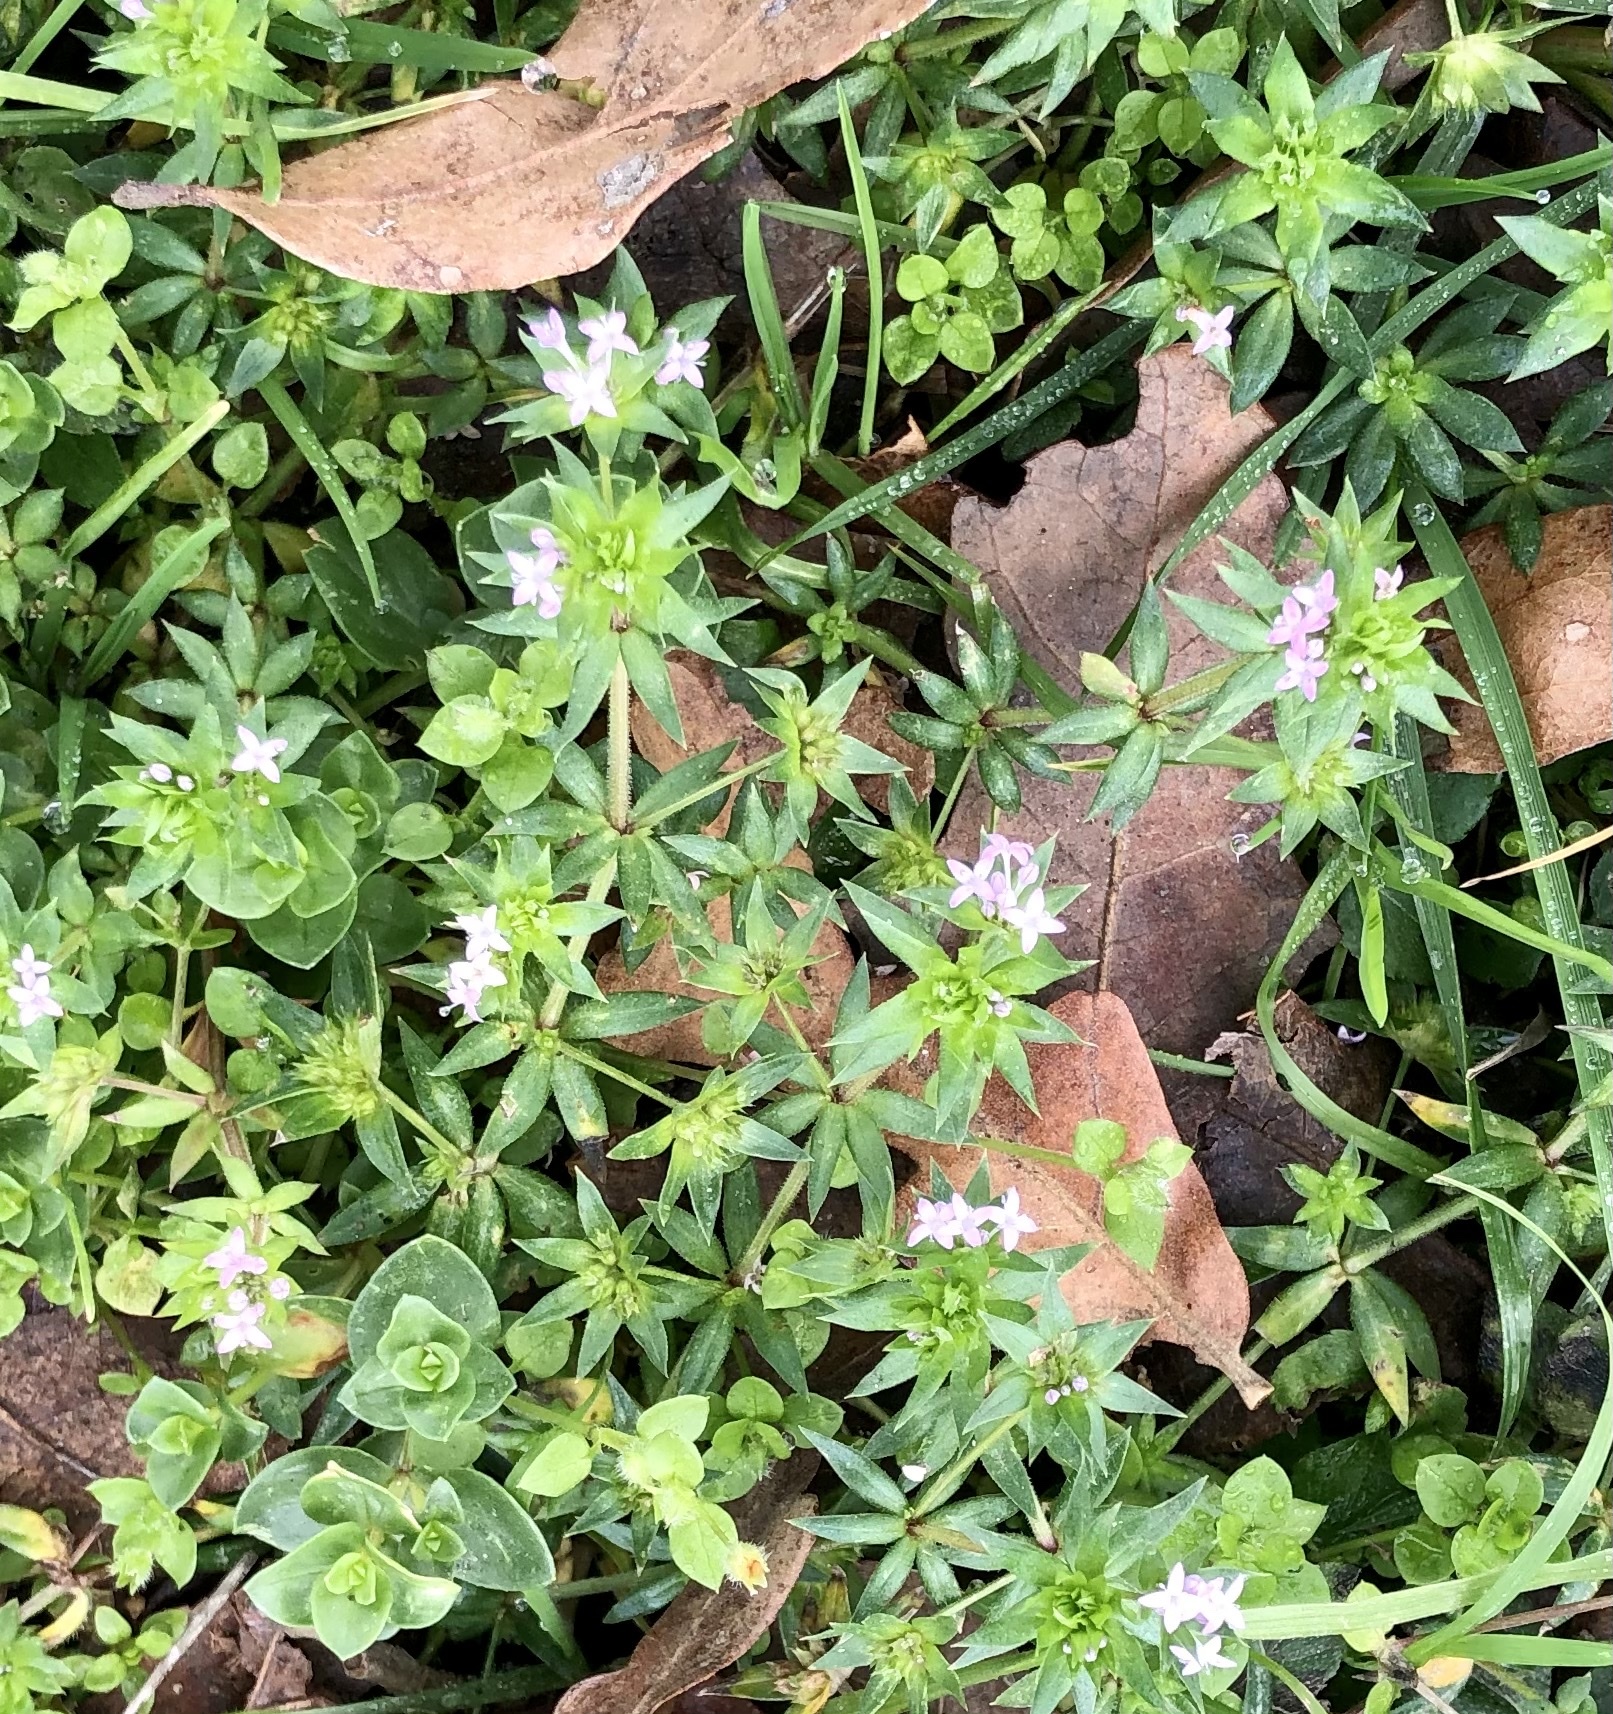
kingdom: Plantae
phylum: Tracheophyta
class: Magnoliopsida
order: Gentianales
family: Rubiaceae
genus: Sherardia
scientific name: Sherardia arvensis
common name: Field madder
